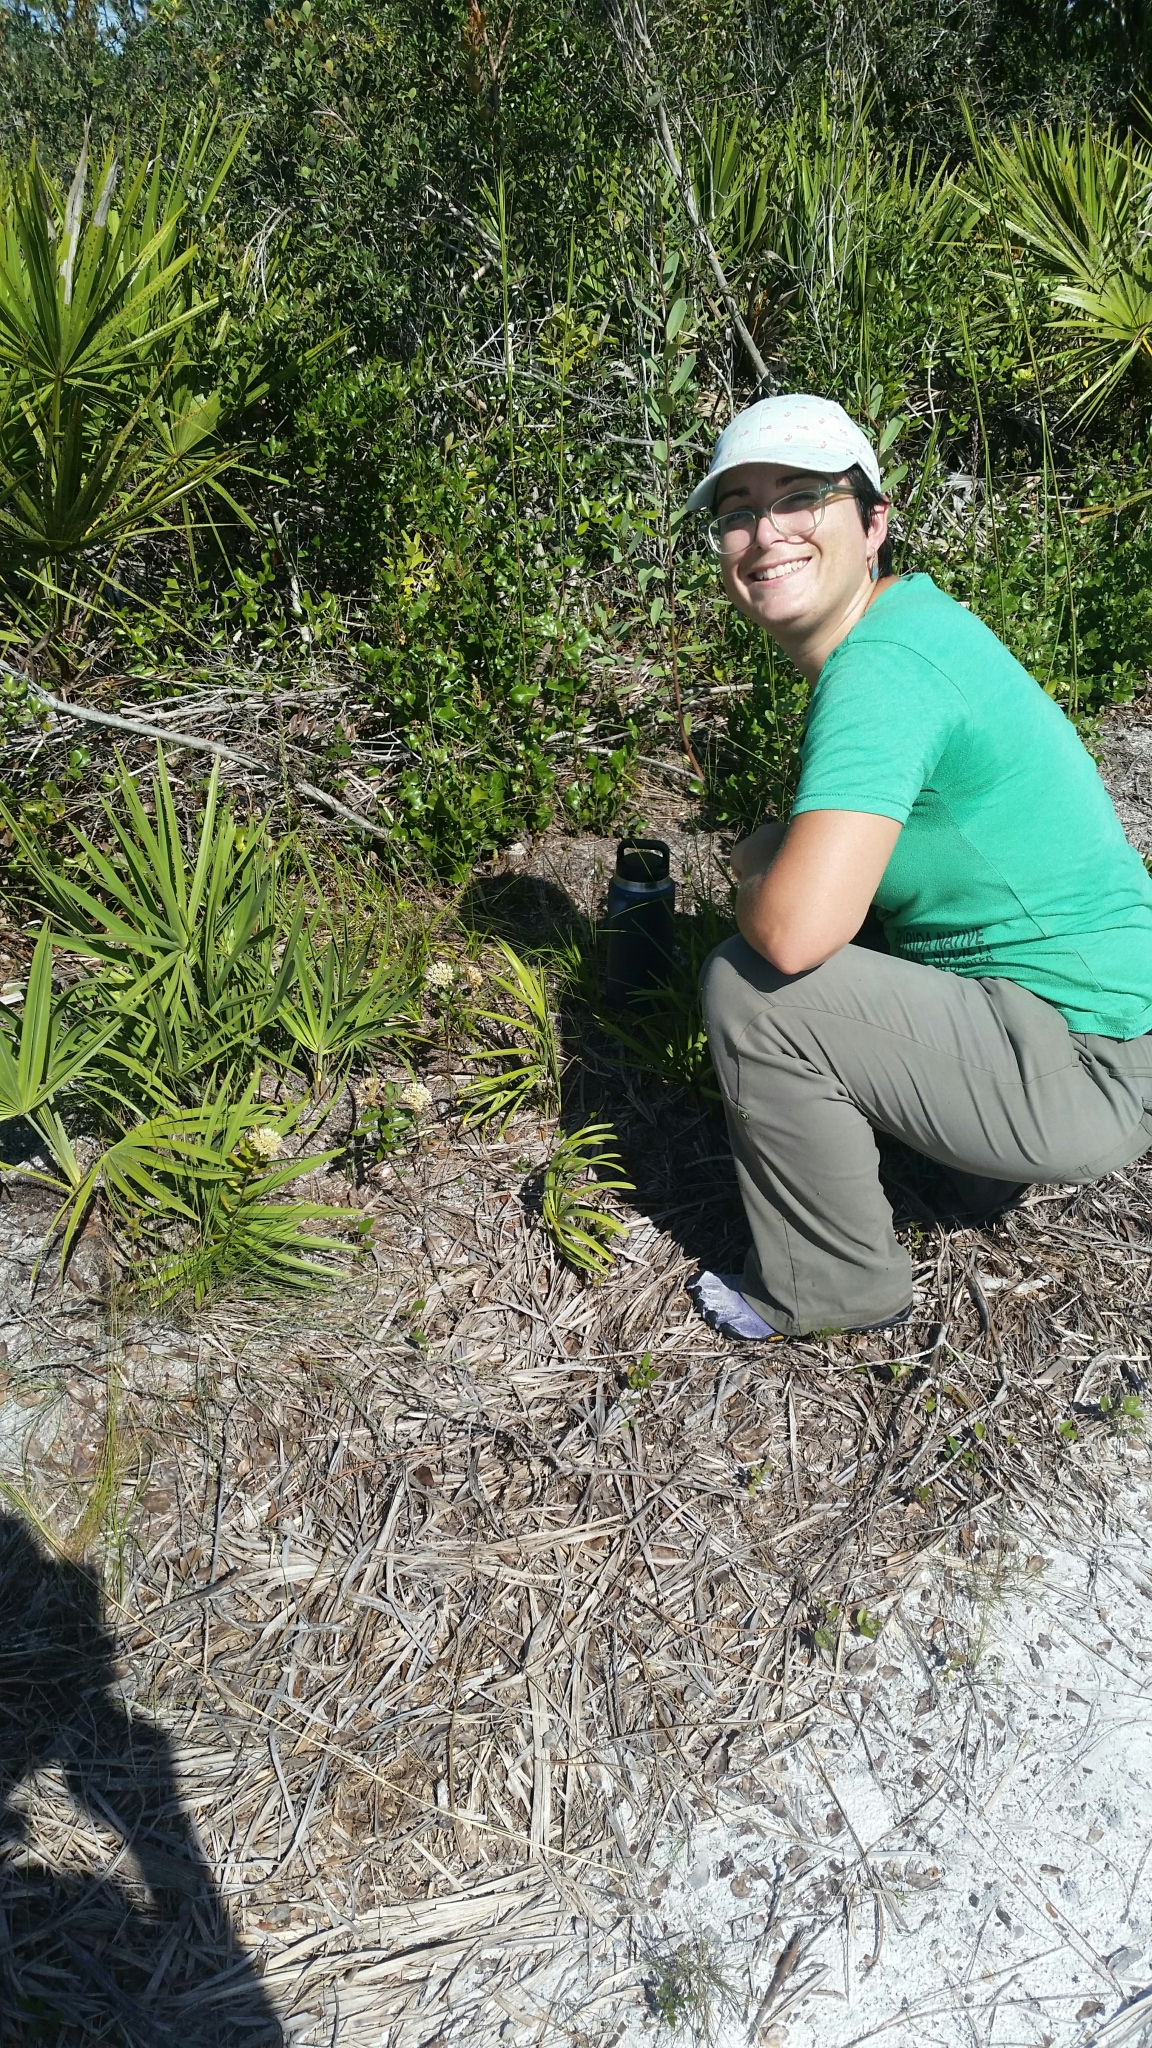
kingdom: Plantae
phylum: Tracheophyta
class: Magnoliopsida
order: Gentianales
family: Apocynaceae
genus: Asclepias
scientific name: Asclepias curtissii
